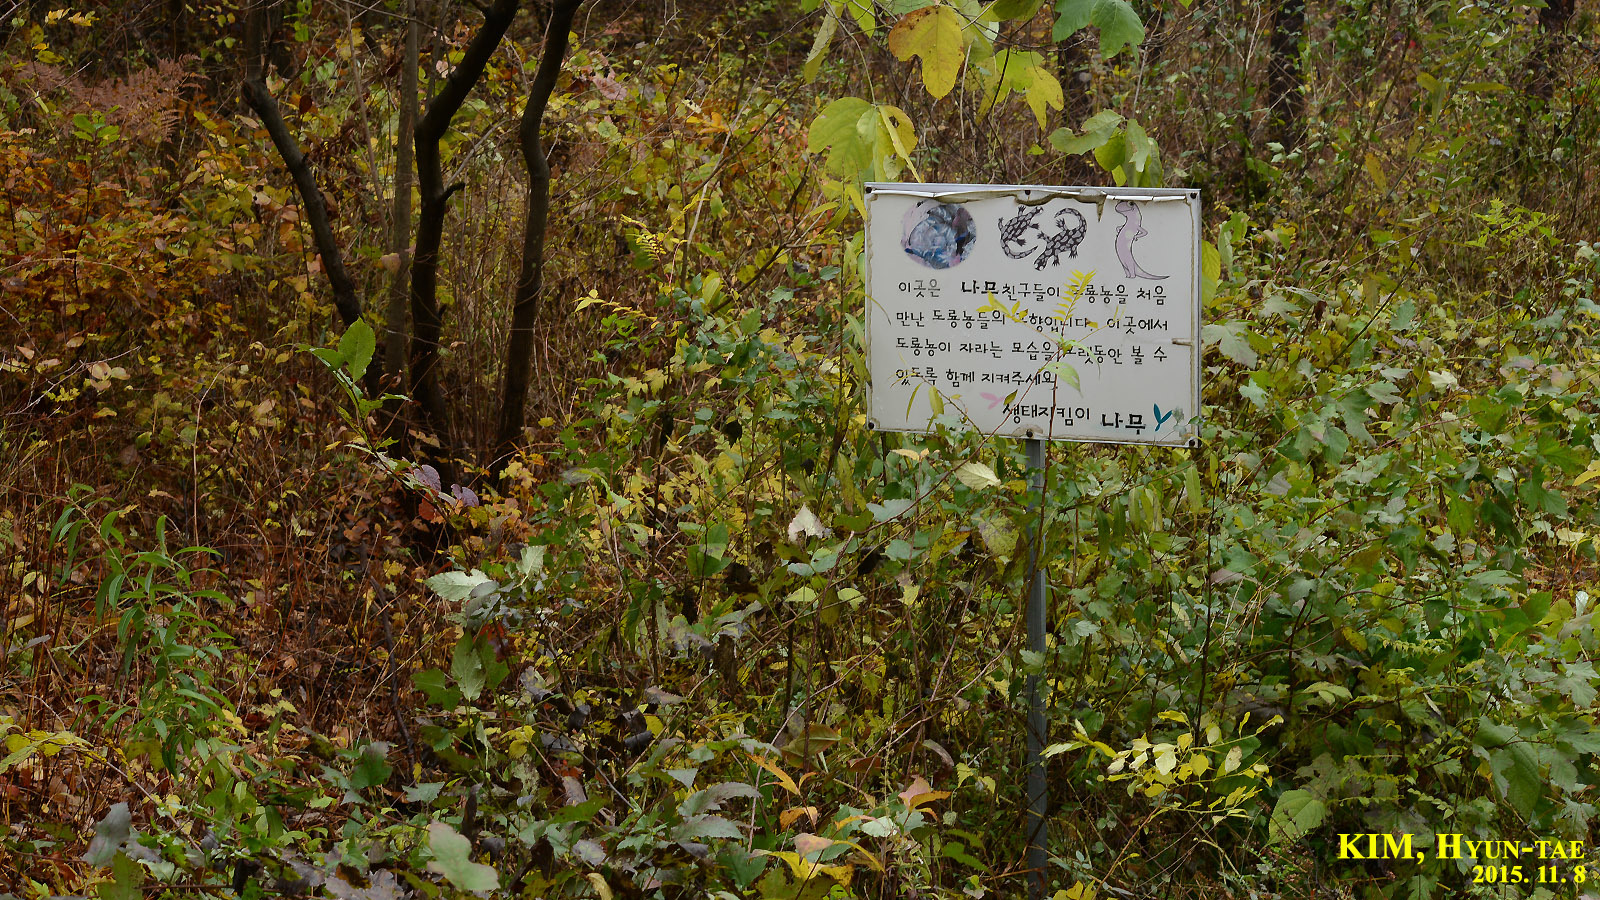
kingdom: Animalia
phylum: Chordata
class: Amphibia
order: Caudata
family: Hynobiidae
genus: Hynobius
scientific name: Hynobius leechii
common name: Gensan salamander
